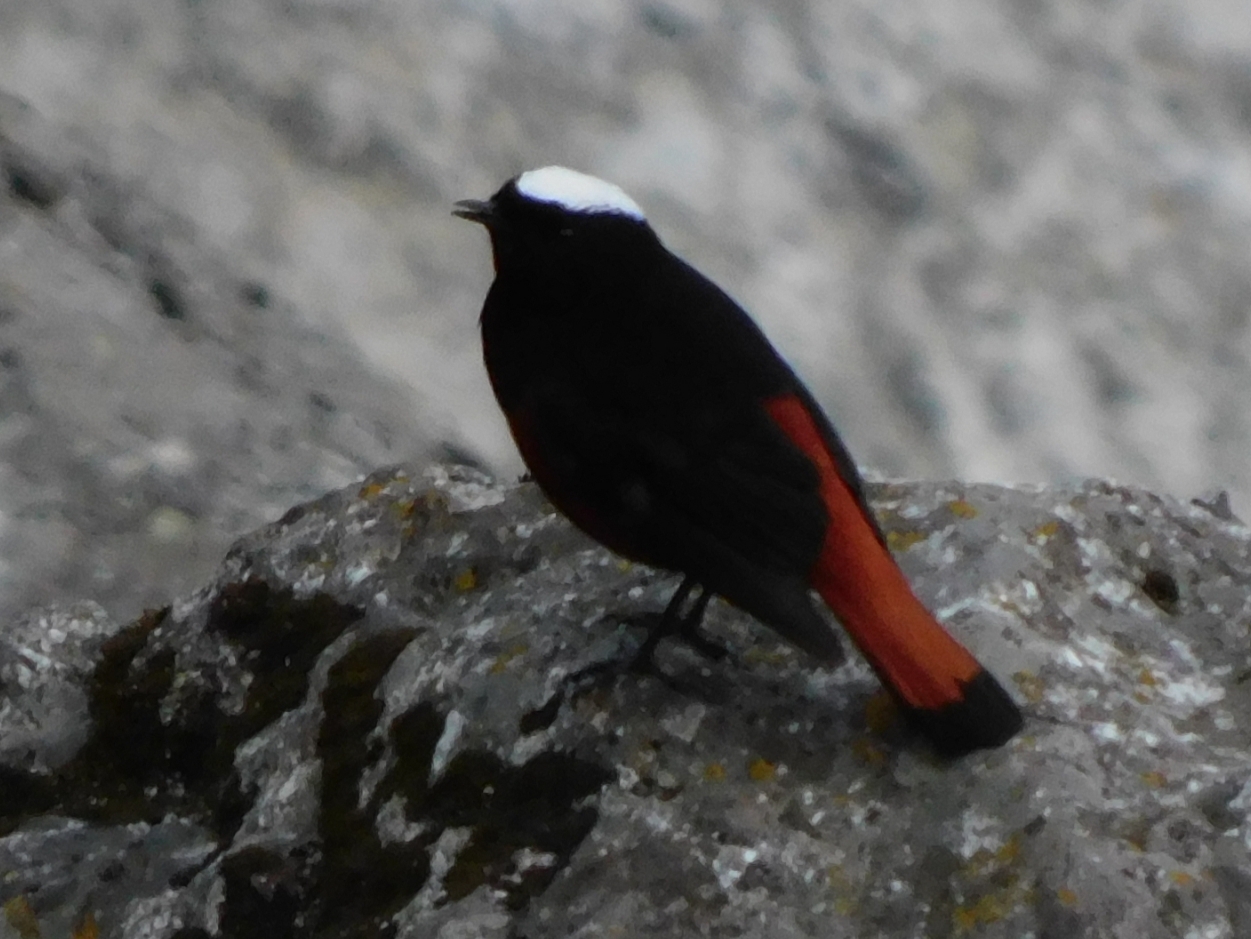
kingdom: Animalia
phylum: Chordata
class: Aves
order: Passeriformes
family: Muscicapidae
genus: Chaimarrornis
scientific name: Chaimarrornis leucocephalus
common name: White-capped redstart
